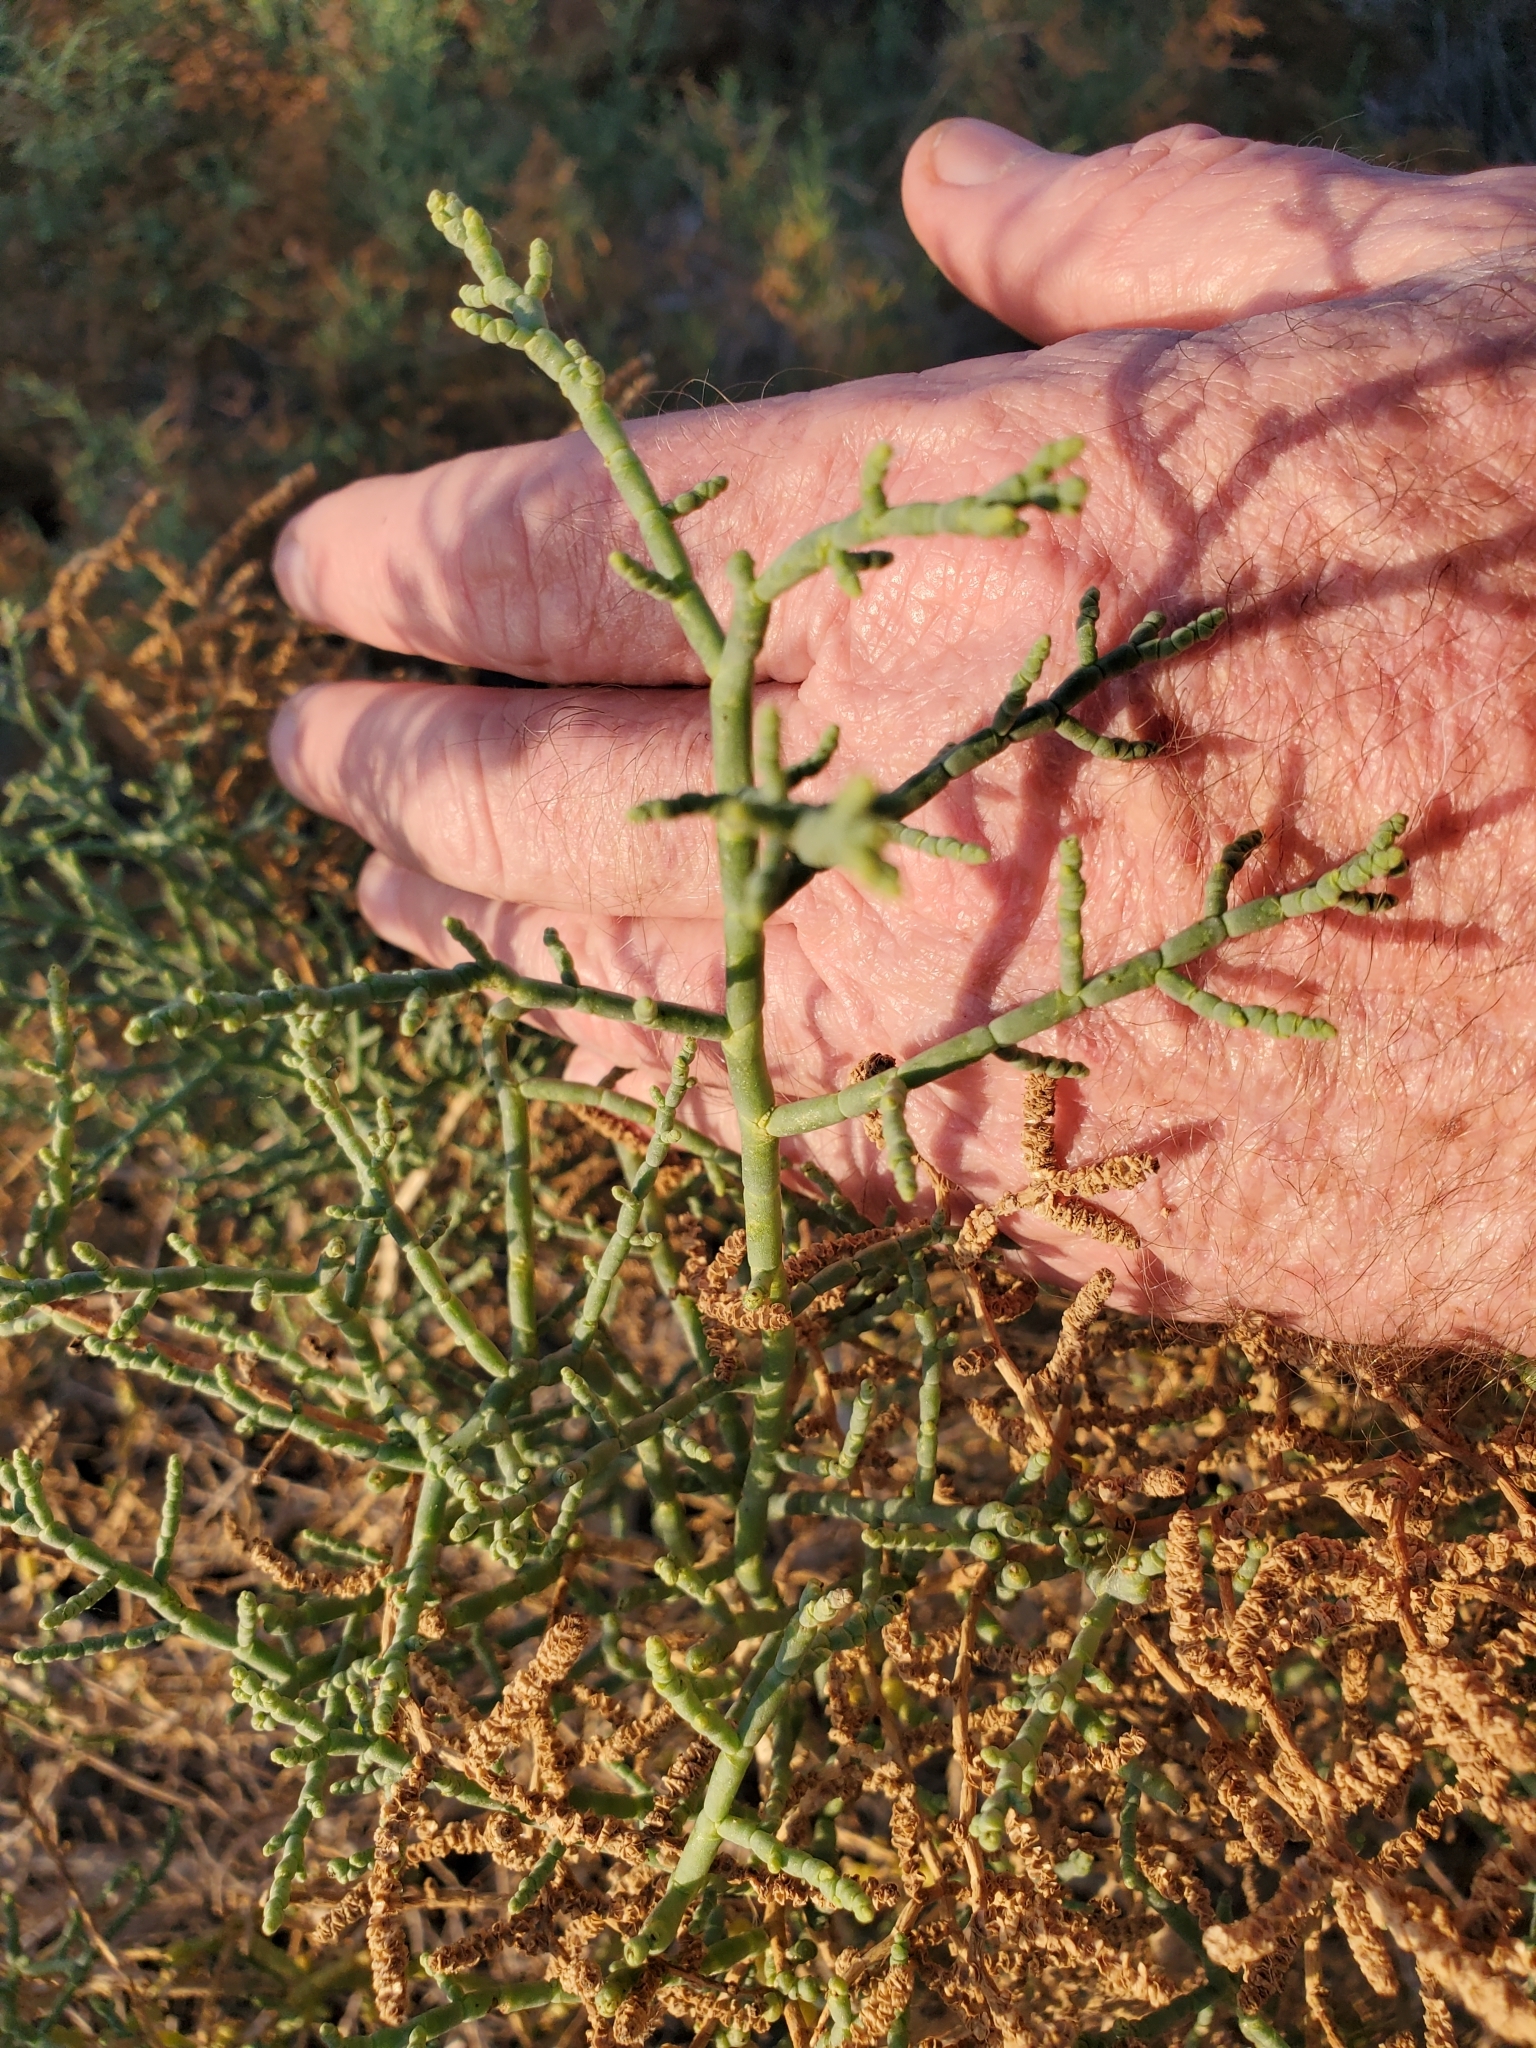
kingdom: Plantae
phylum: Tracheophyta
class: Magnoliopsida
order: Caryophyllales
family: Amaranthaceae
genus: Allenrolfea
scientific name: Allenrolfea occidentalis
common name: Iodine-bush
